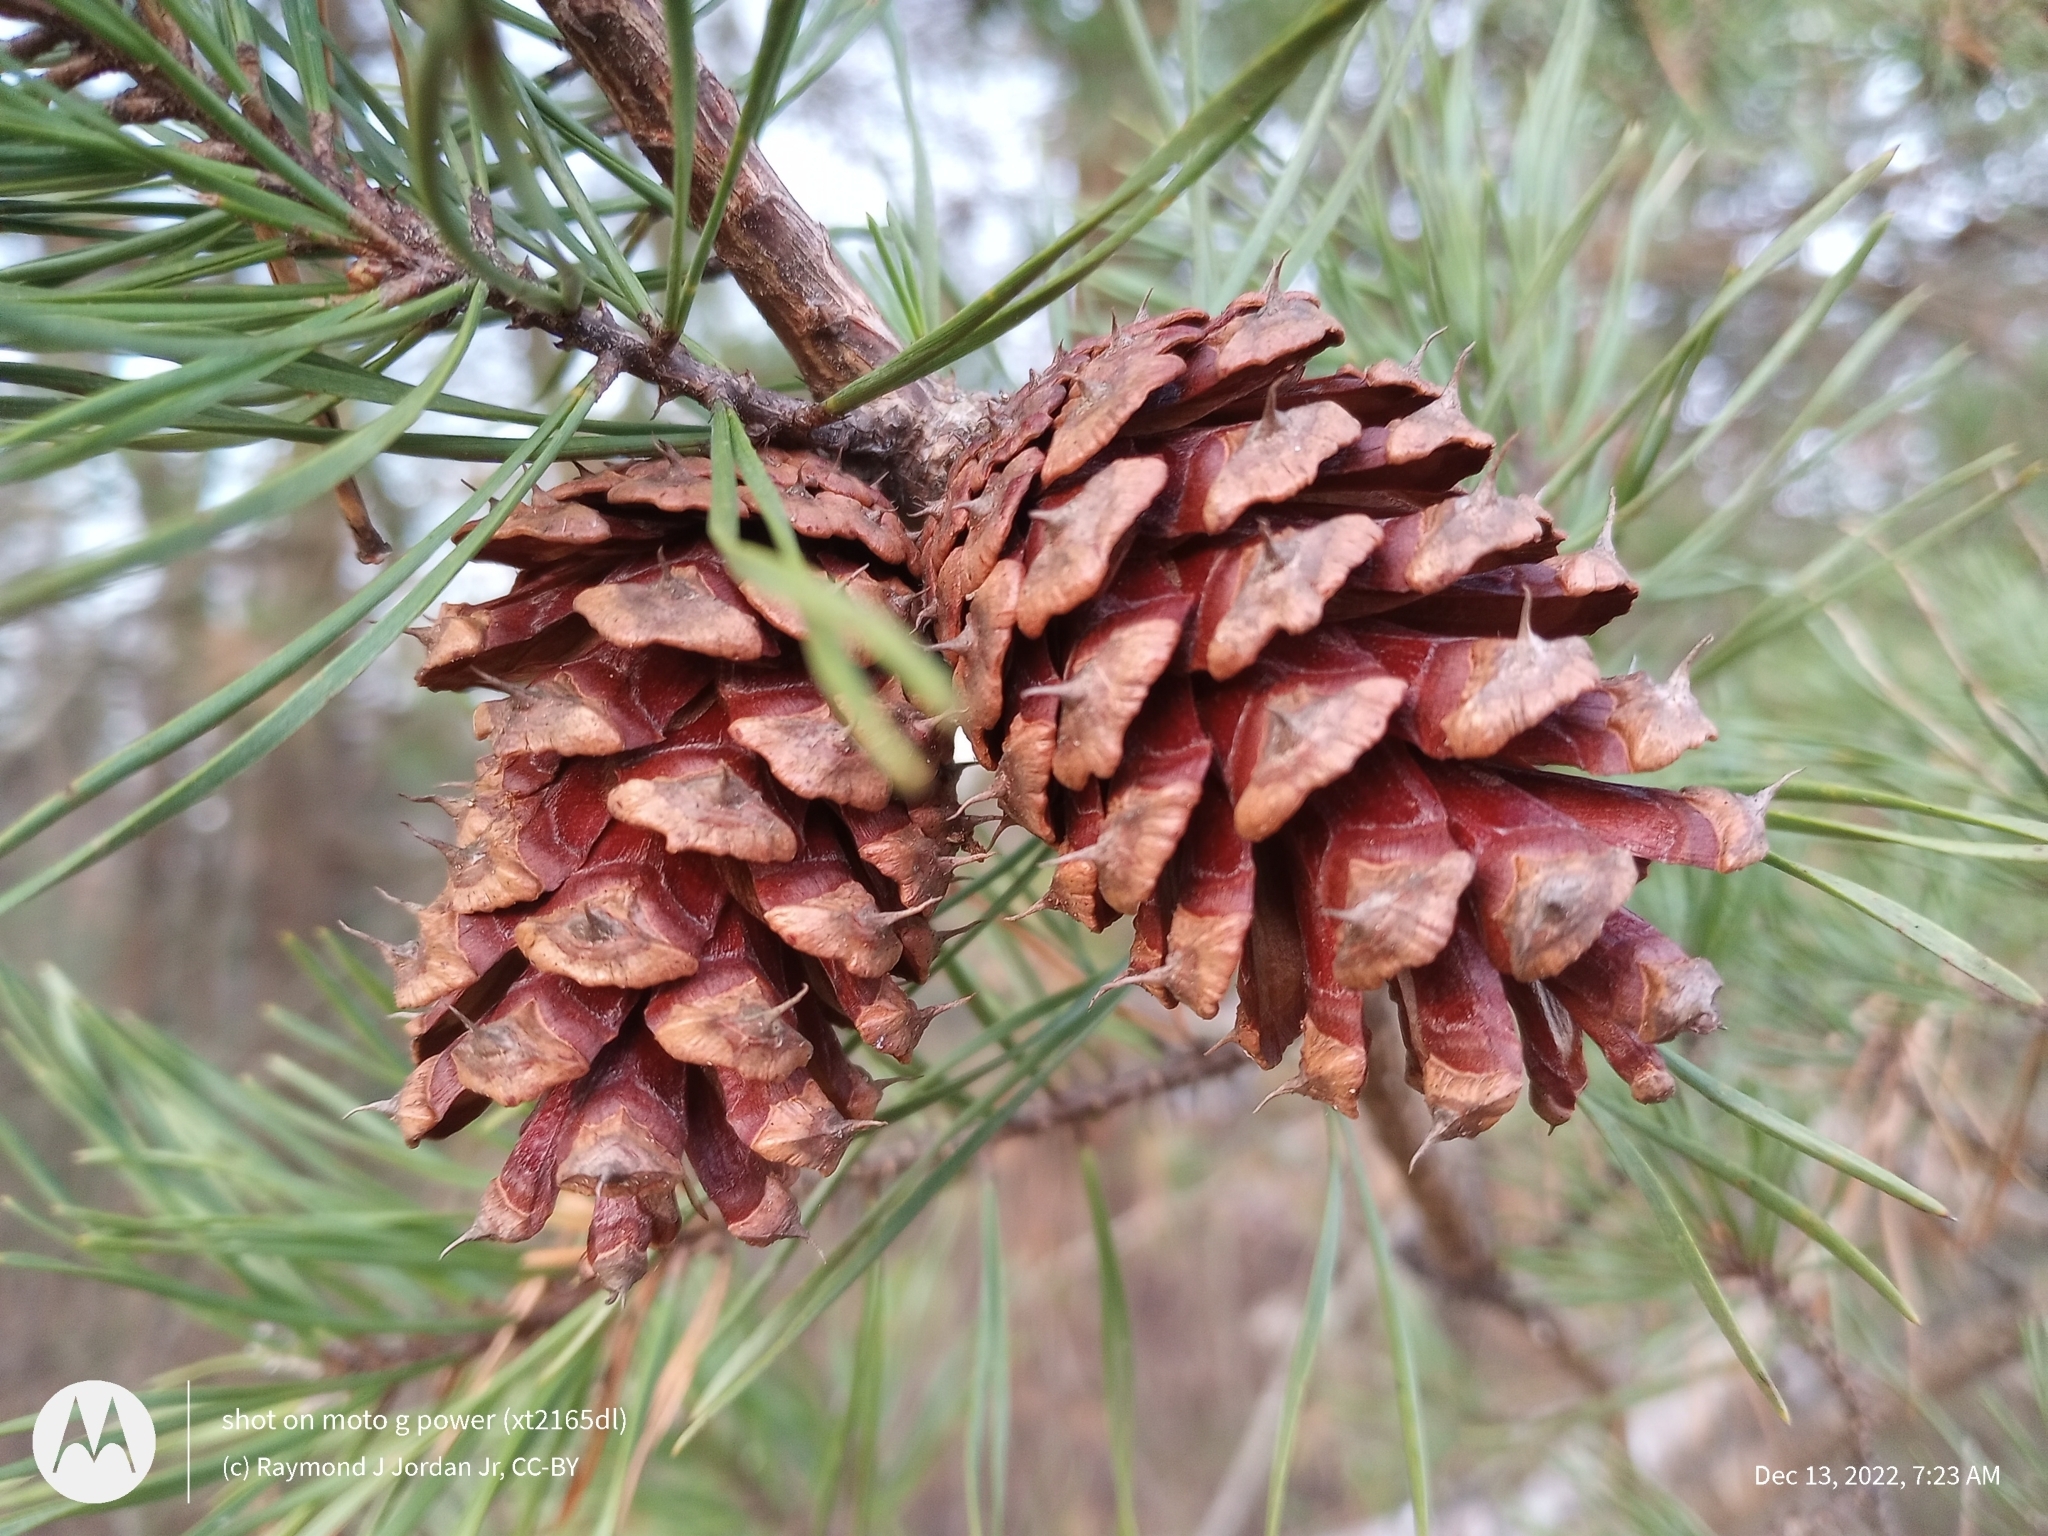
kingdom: Plantae
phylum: Tracheophyta
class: Pinopsida
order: Pinales
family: Pinaceae
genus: Pinus
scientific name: Pinus virginiana
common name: Scrub pine
